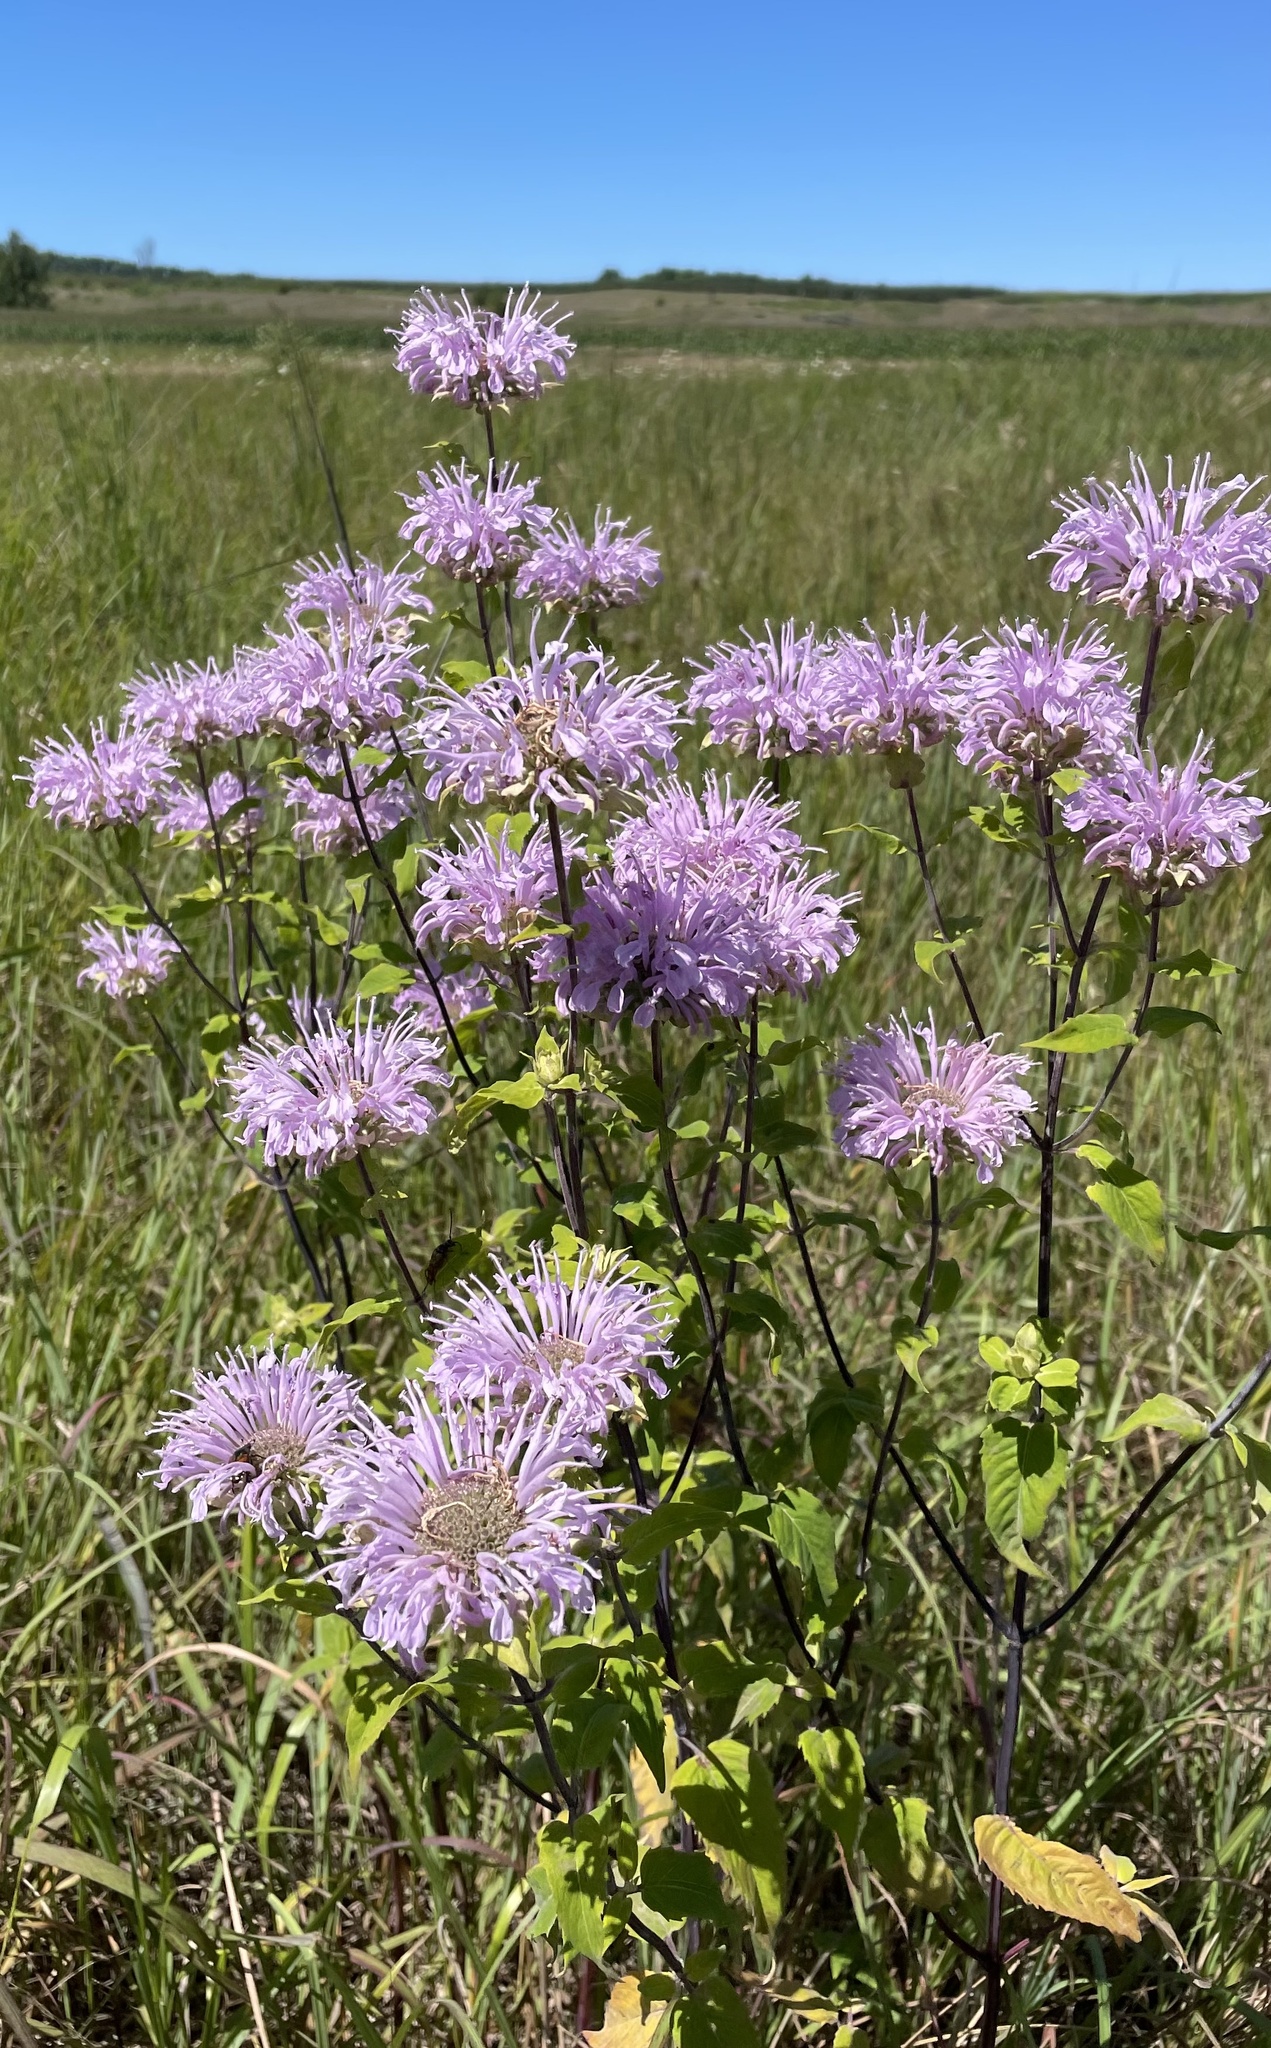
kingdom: Plantae
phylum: Tracheophyta
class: Magnoliopsida
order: Lamiales
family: Lamiaceae
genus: Monarda
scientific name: Monarda fistulosa
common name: Purple beebalm
